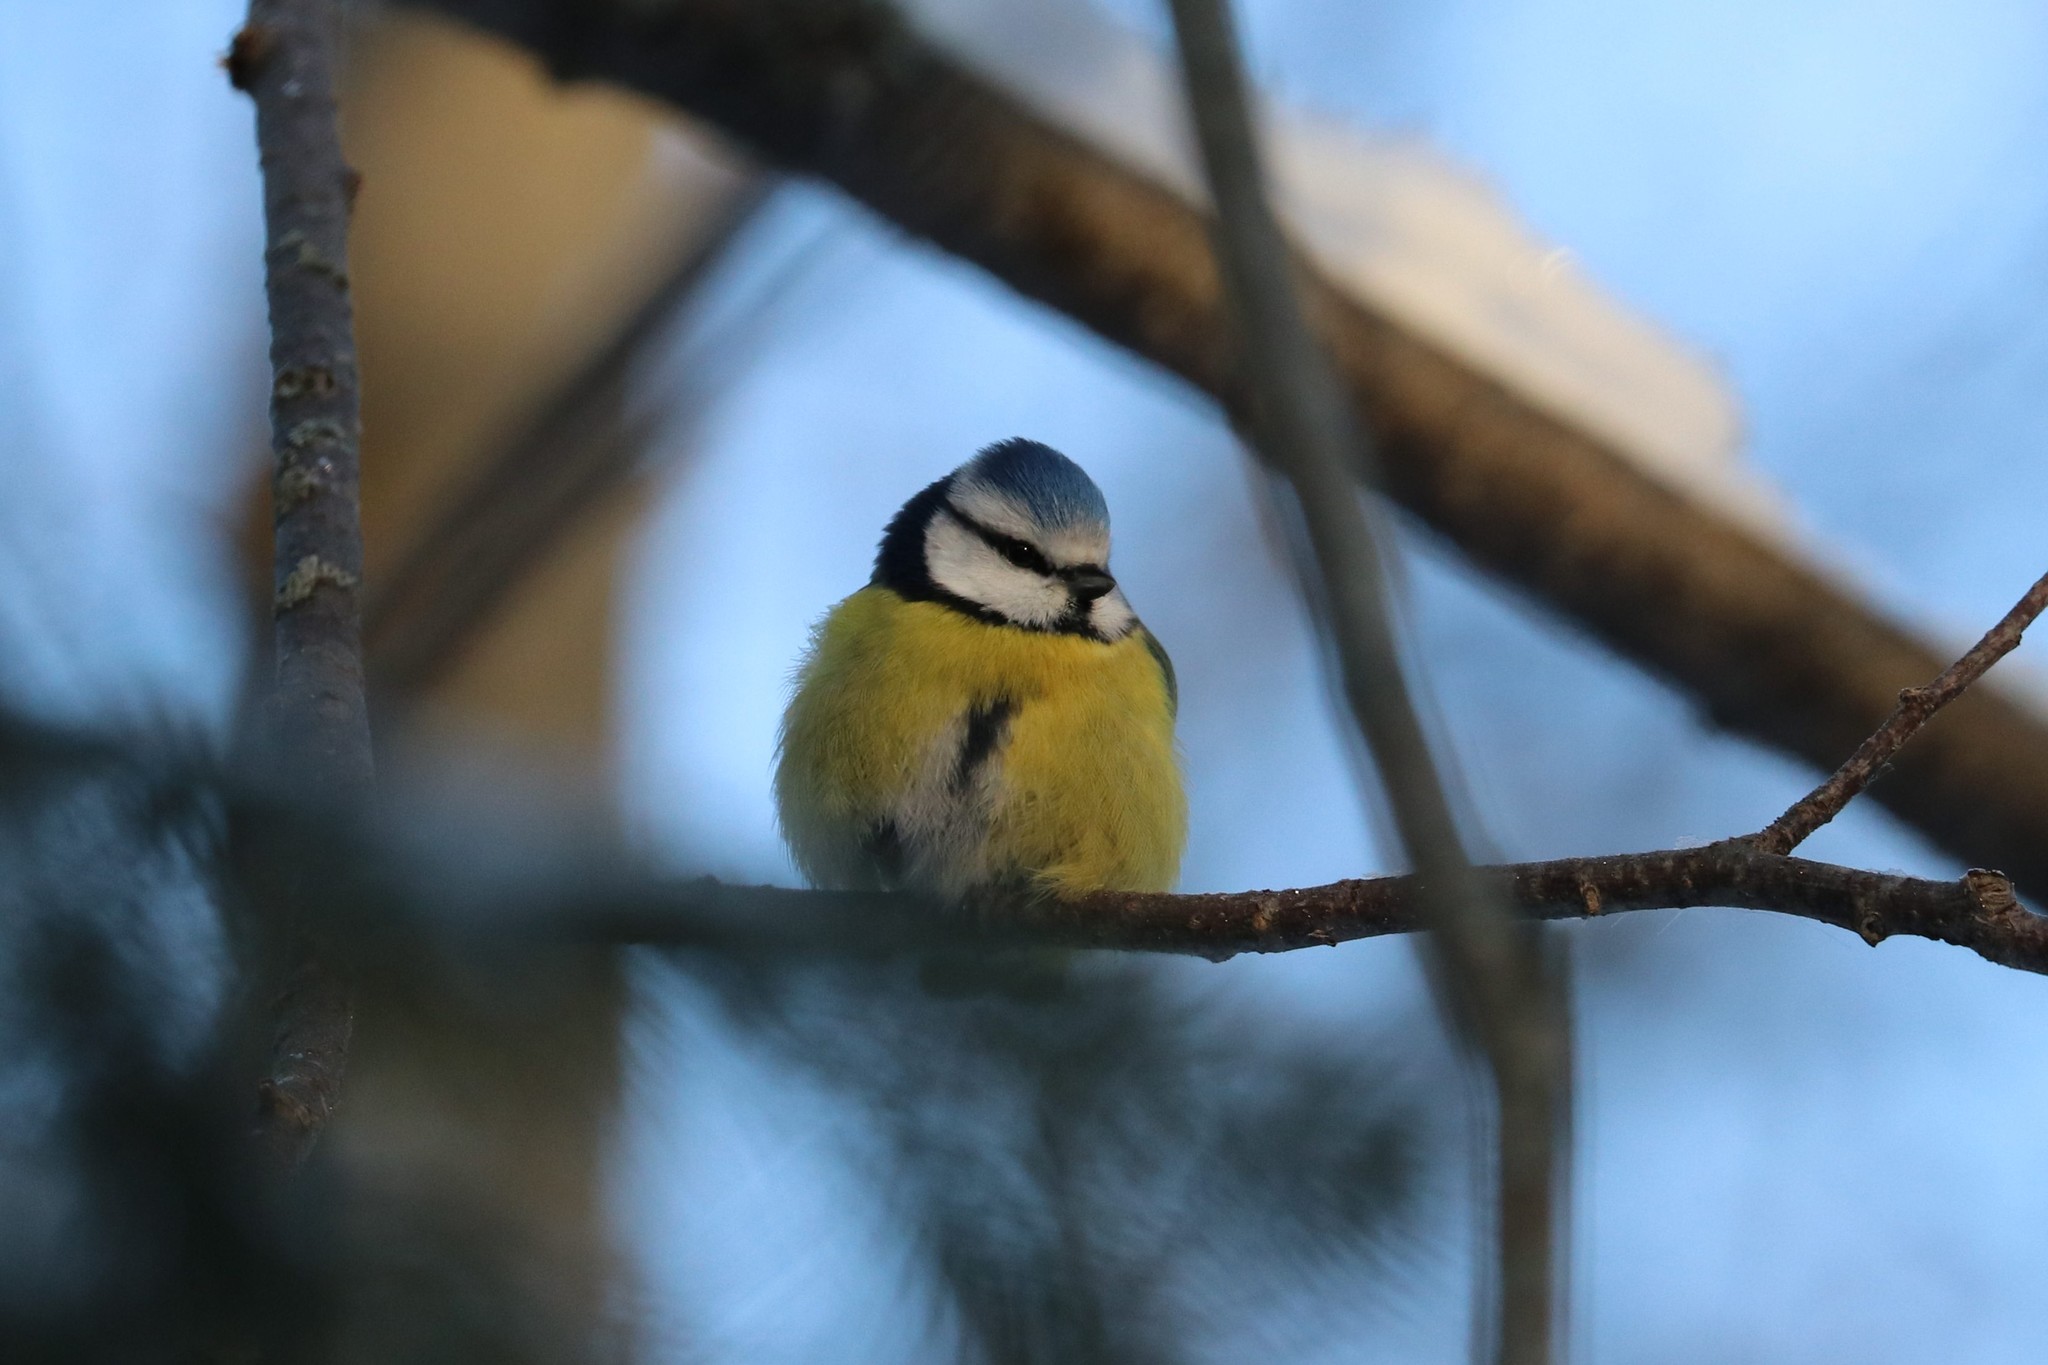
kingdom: Animalia
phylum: Chordata
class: Aves
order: Passeriformes
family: Paridae
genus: Cyanistes
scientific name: Cyanistes caeruleus
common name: Eurasian blue tit
